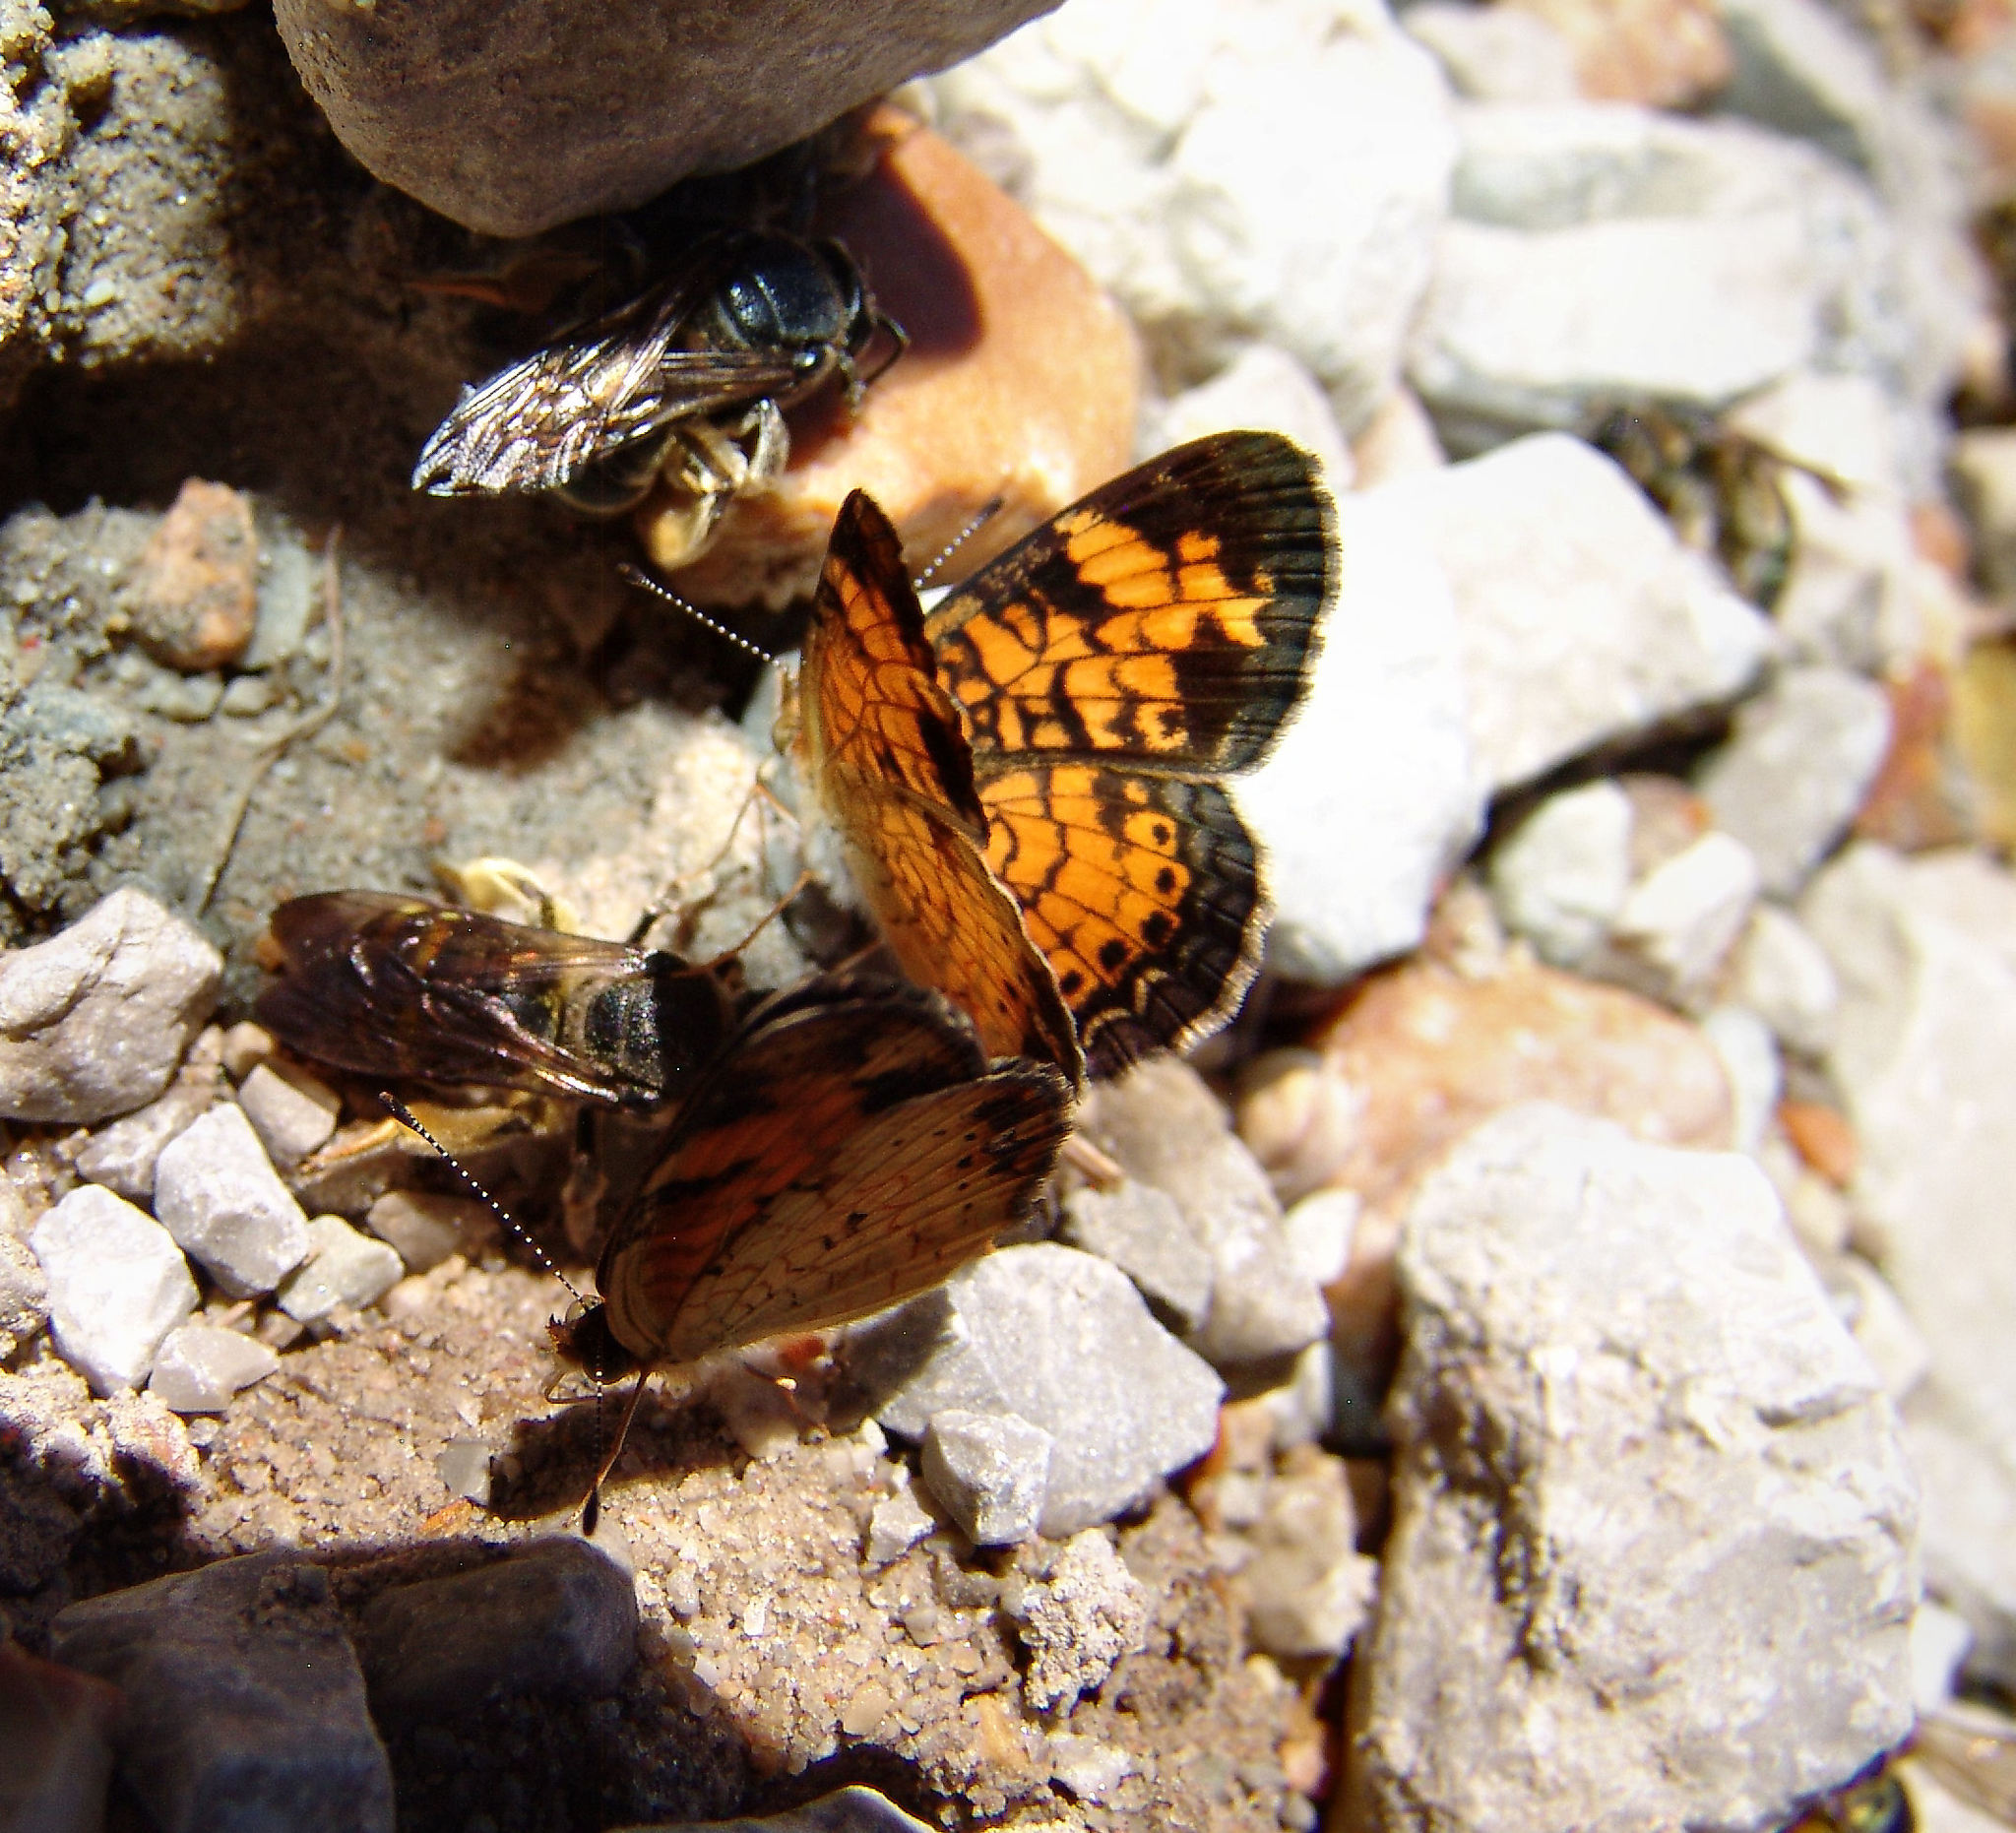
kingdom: Animalia
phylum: Arthropoda
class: Insecta
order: Lepidoptera
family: Nymphalidae
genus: Phyciodes
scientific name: Phyciodes tharos
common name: Pearl crescent
